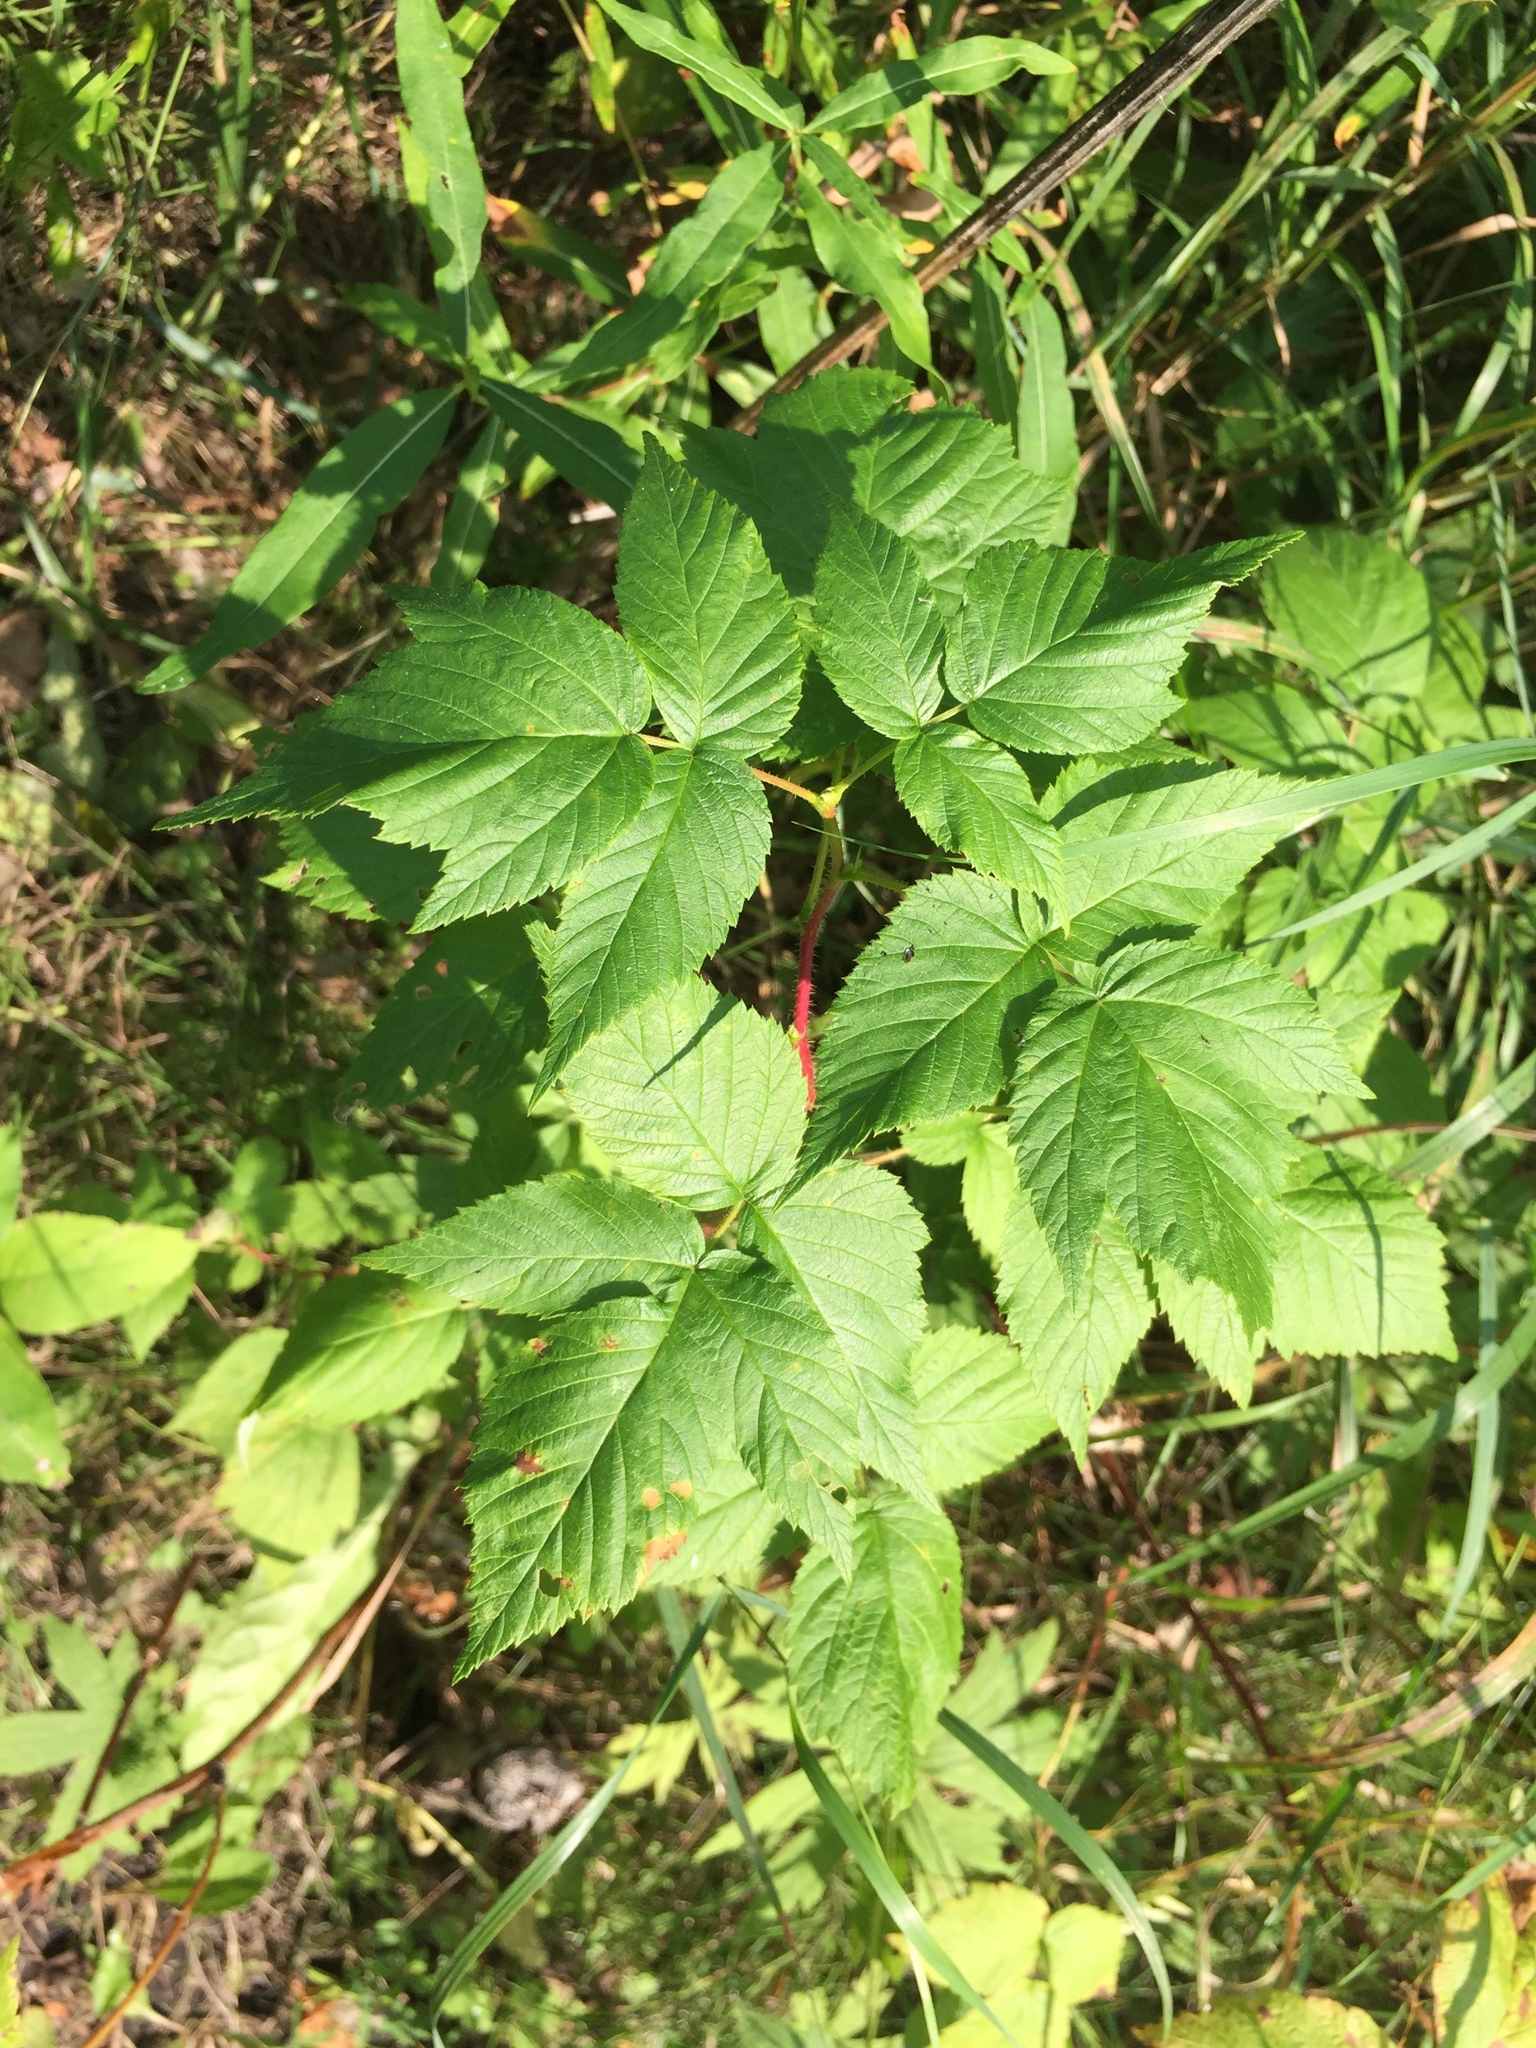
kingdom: Plantae
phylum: Tracheophyta
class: Magnoliopsida
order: Rosales
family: Rosaceae
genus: Rubus
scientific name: Rubus idaeus
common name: Raspberry
